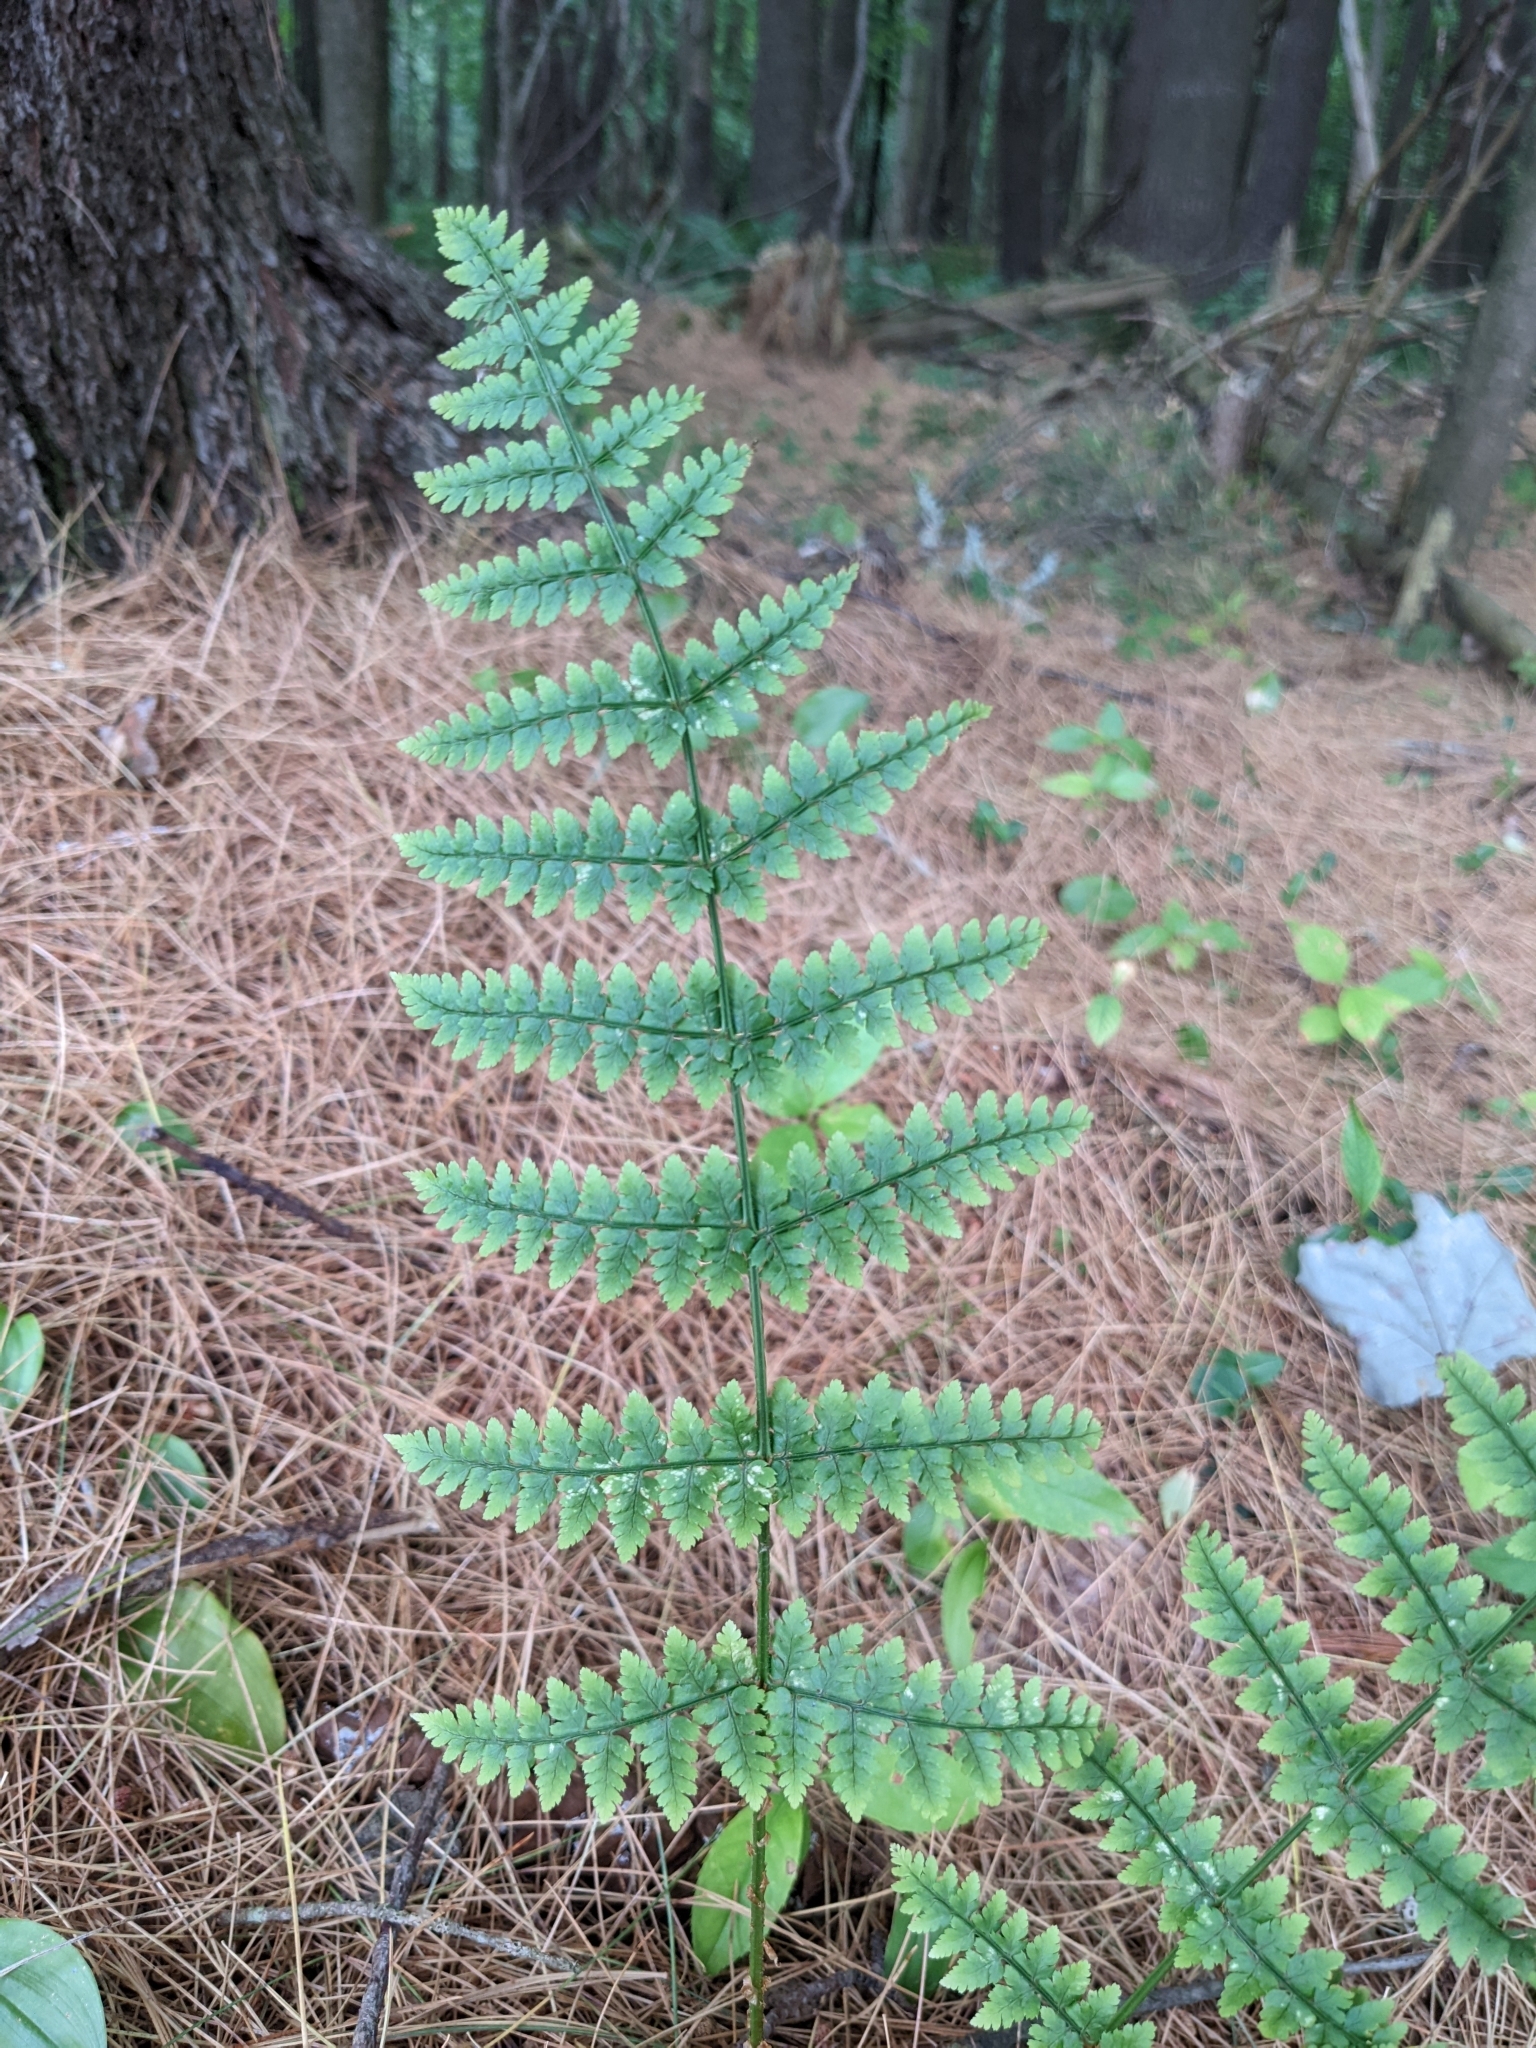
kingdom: Plantae
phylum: Tracheophyta
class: Polypodiopsida
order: Polypodiales
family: Dryopteridaceae
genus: Dryopteris
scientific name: Dryopteris intermedia
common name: Evergreen wood fern
